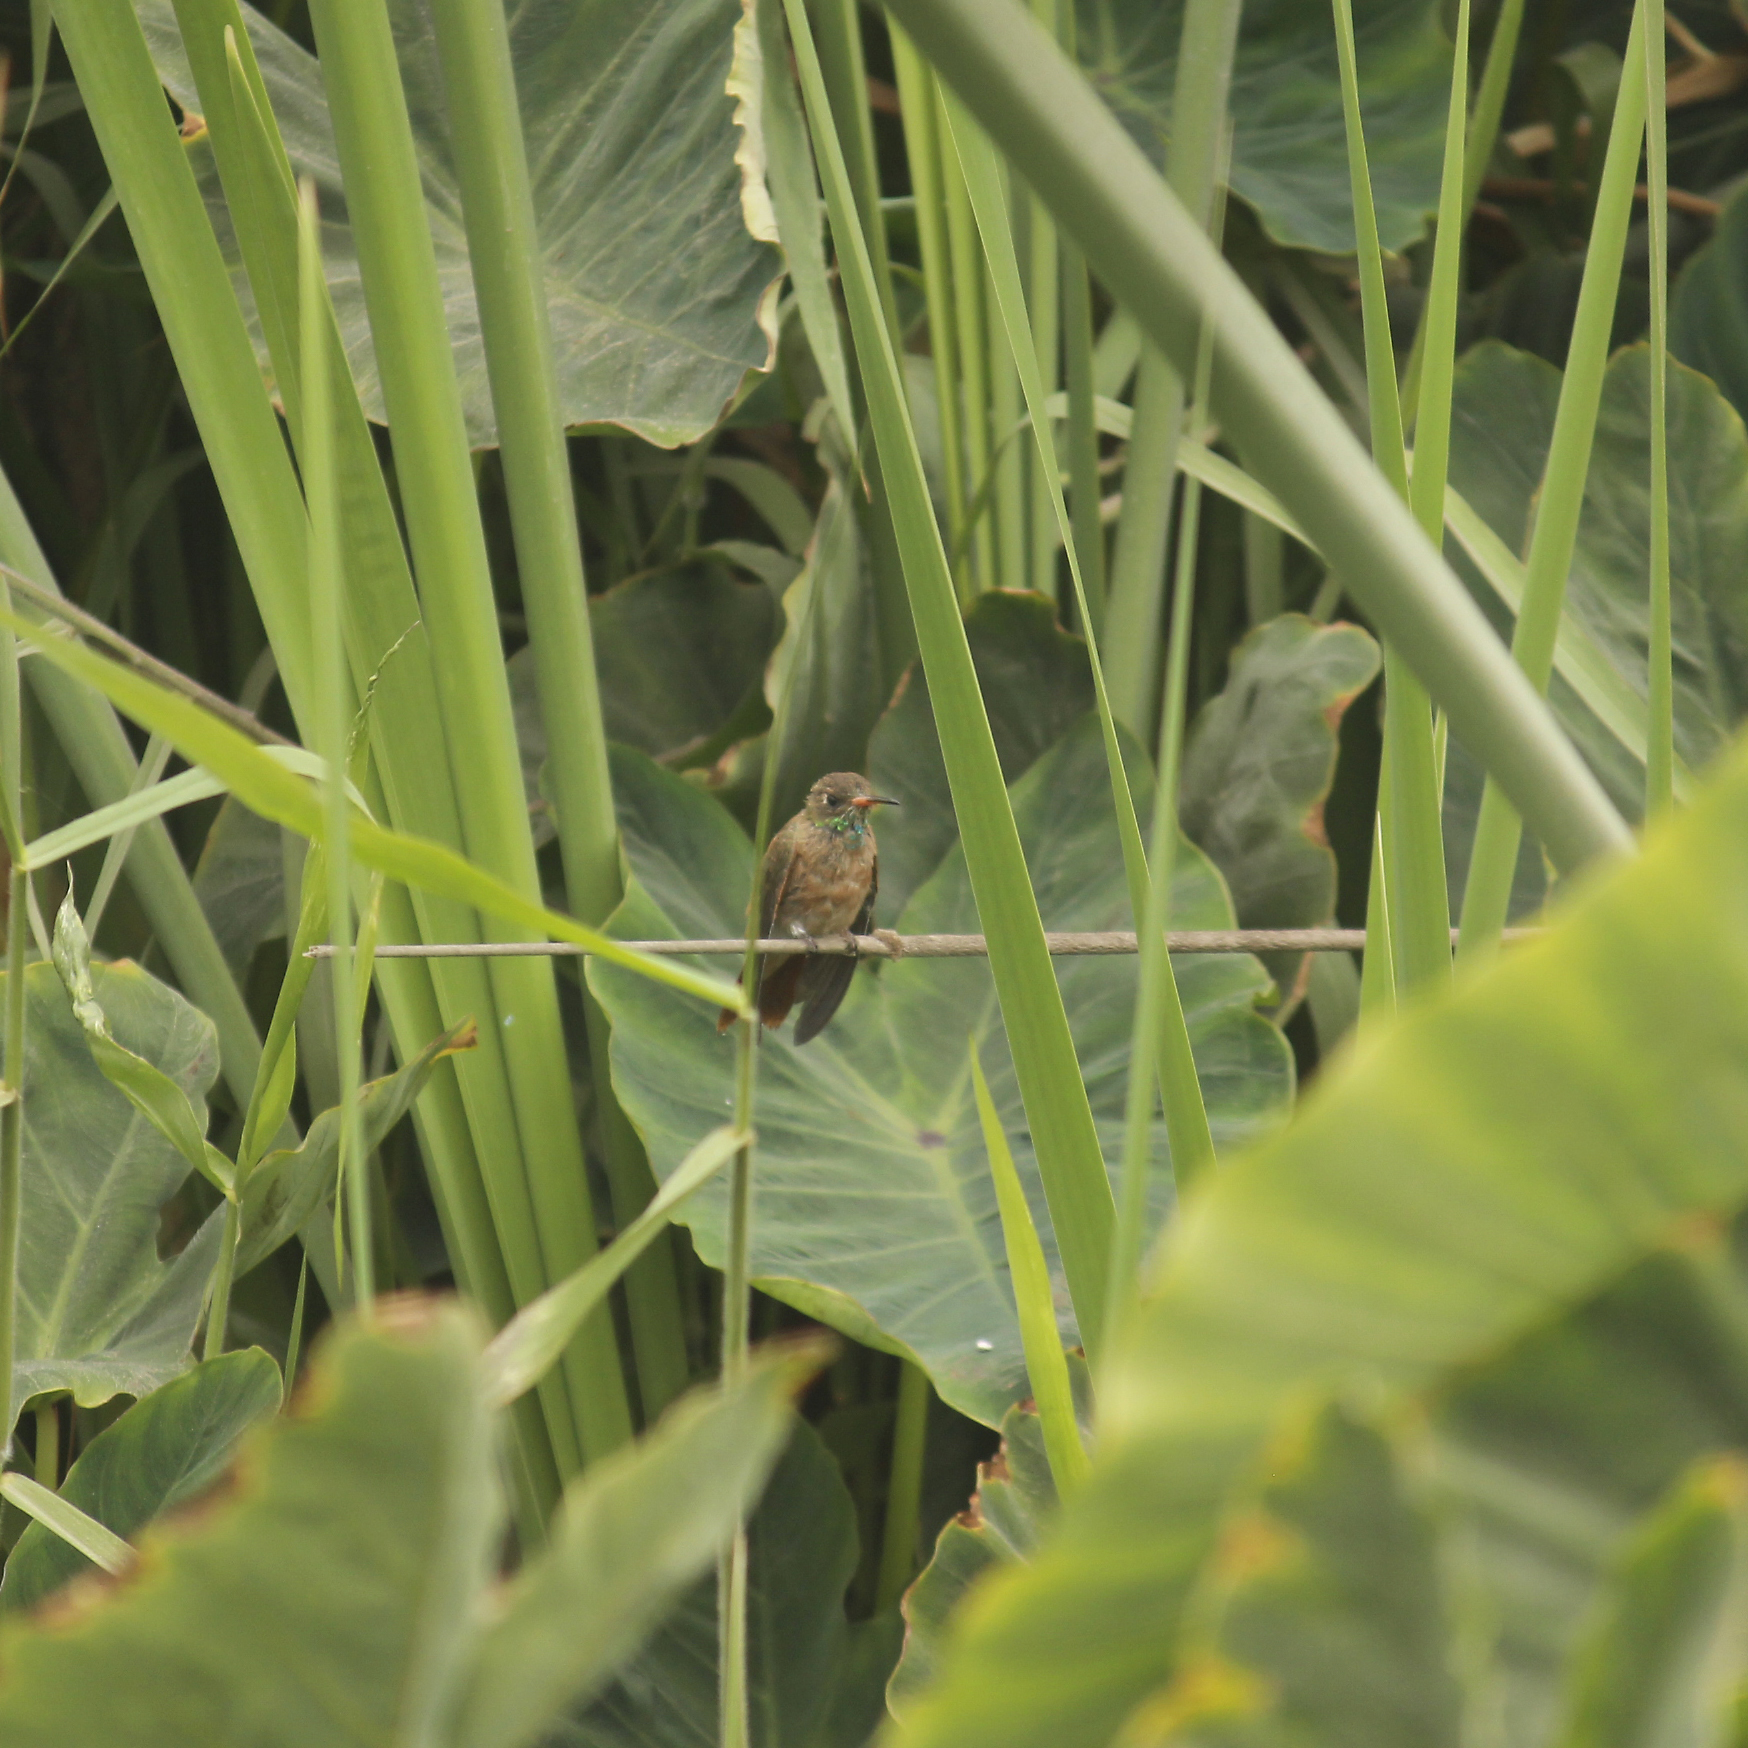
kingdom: Animalia
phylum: Chordata
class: Aves
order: Apodiformes
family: Trochilidae
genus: Amazilis
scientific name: Amazilis amazilia
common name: Amazilia hummingbird
